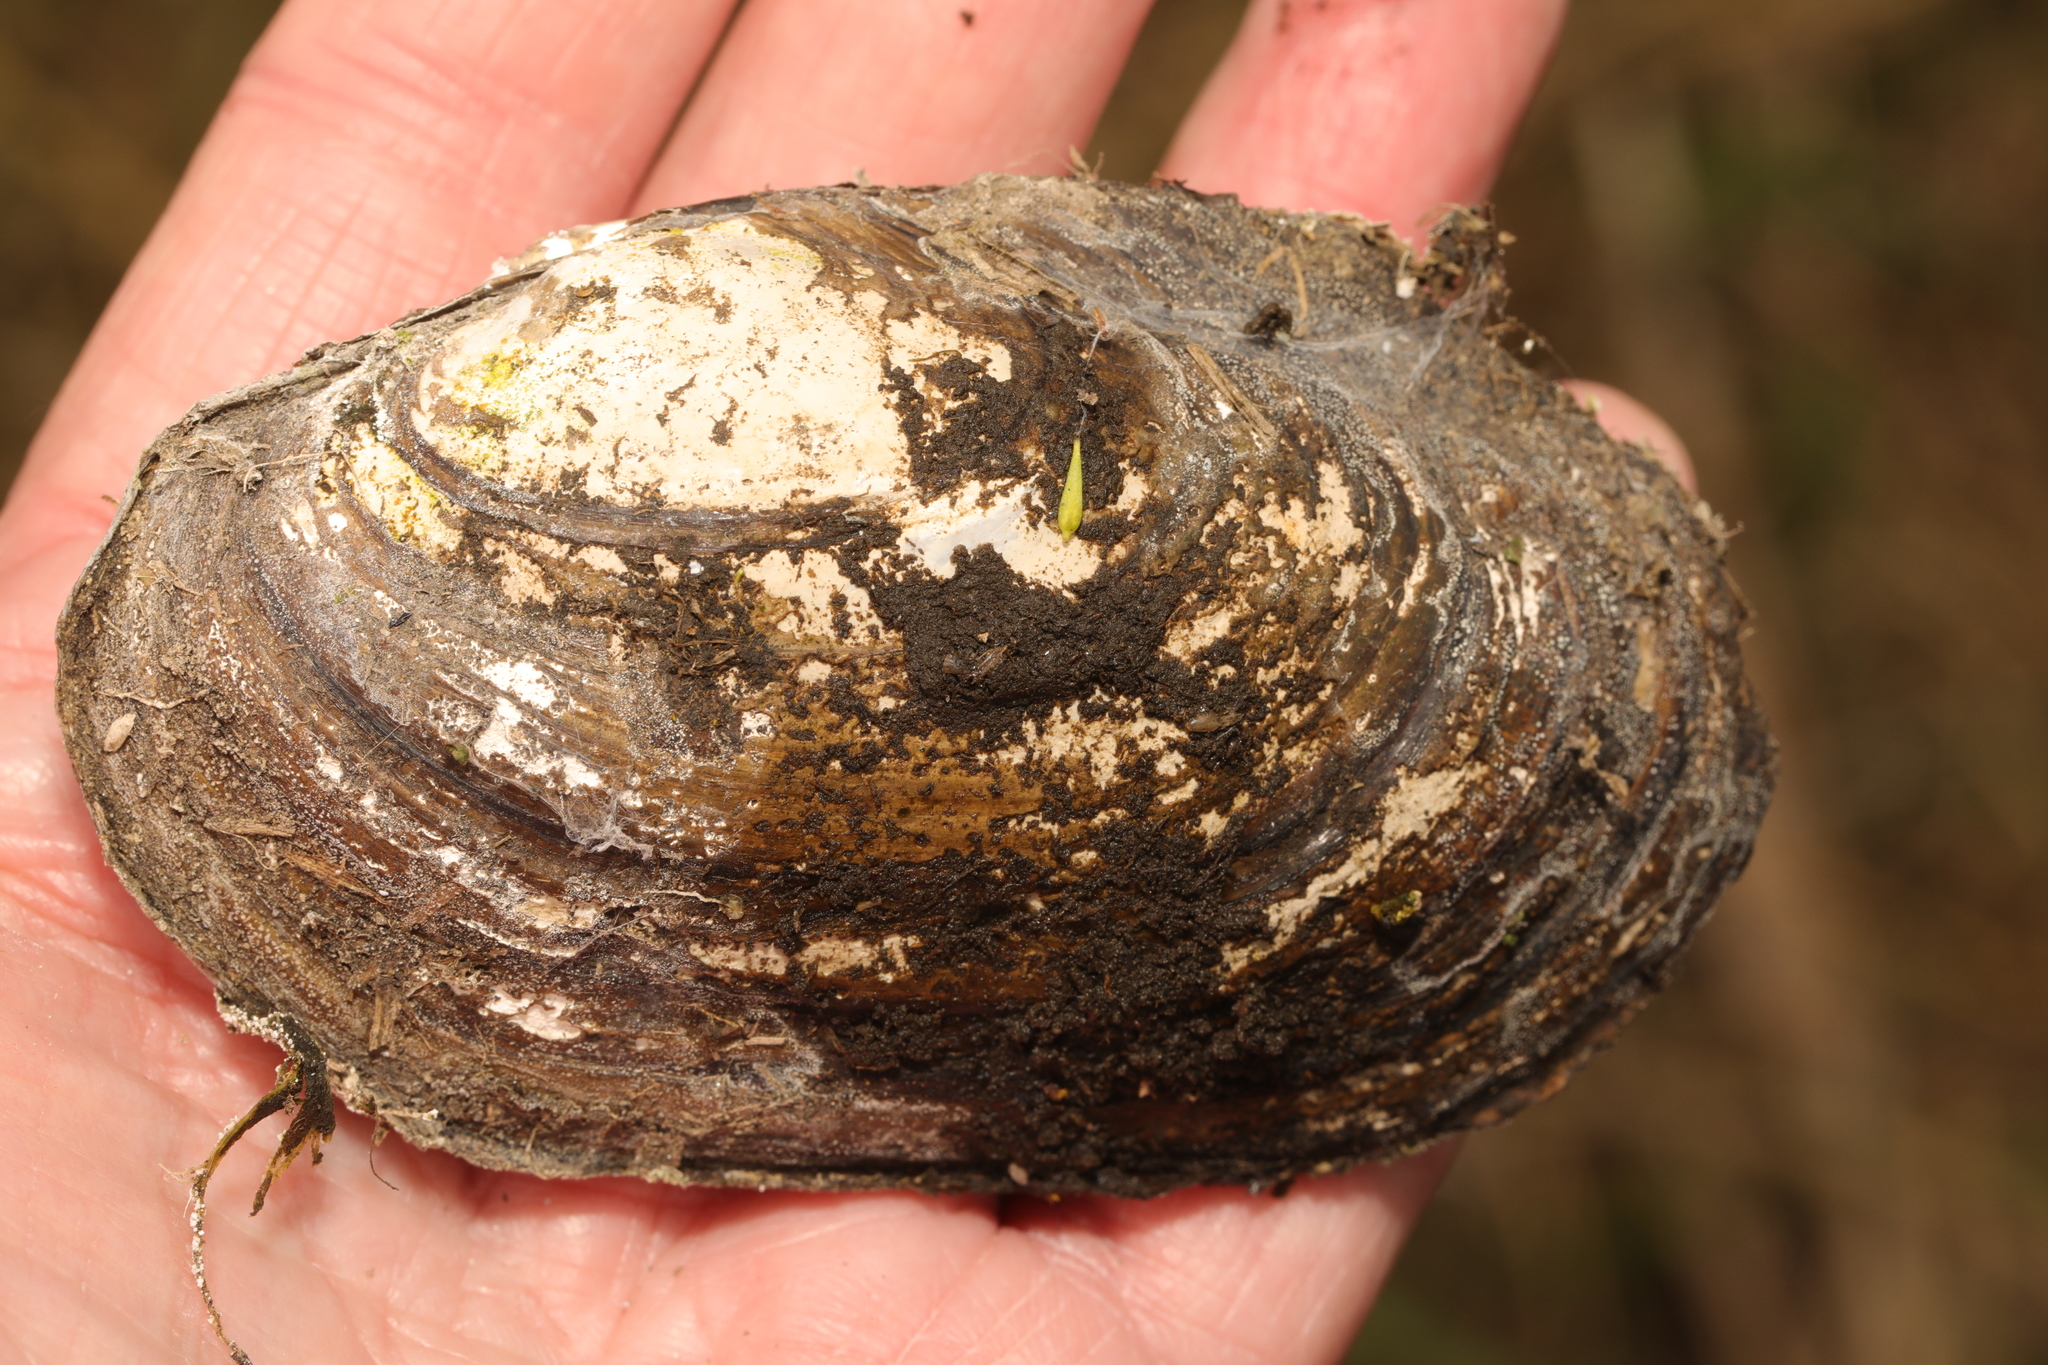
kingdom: Animalia
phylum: Mollusca
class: Bivalvia
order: Unionida
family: Unionidae
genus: Anodonta
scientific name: Anodonta anatina
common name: Duck mussel
